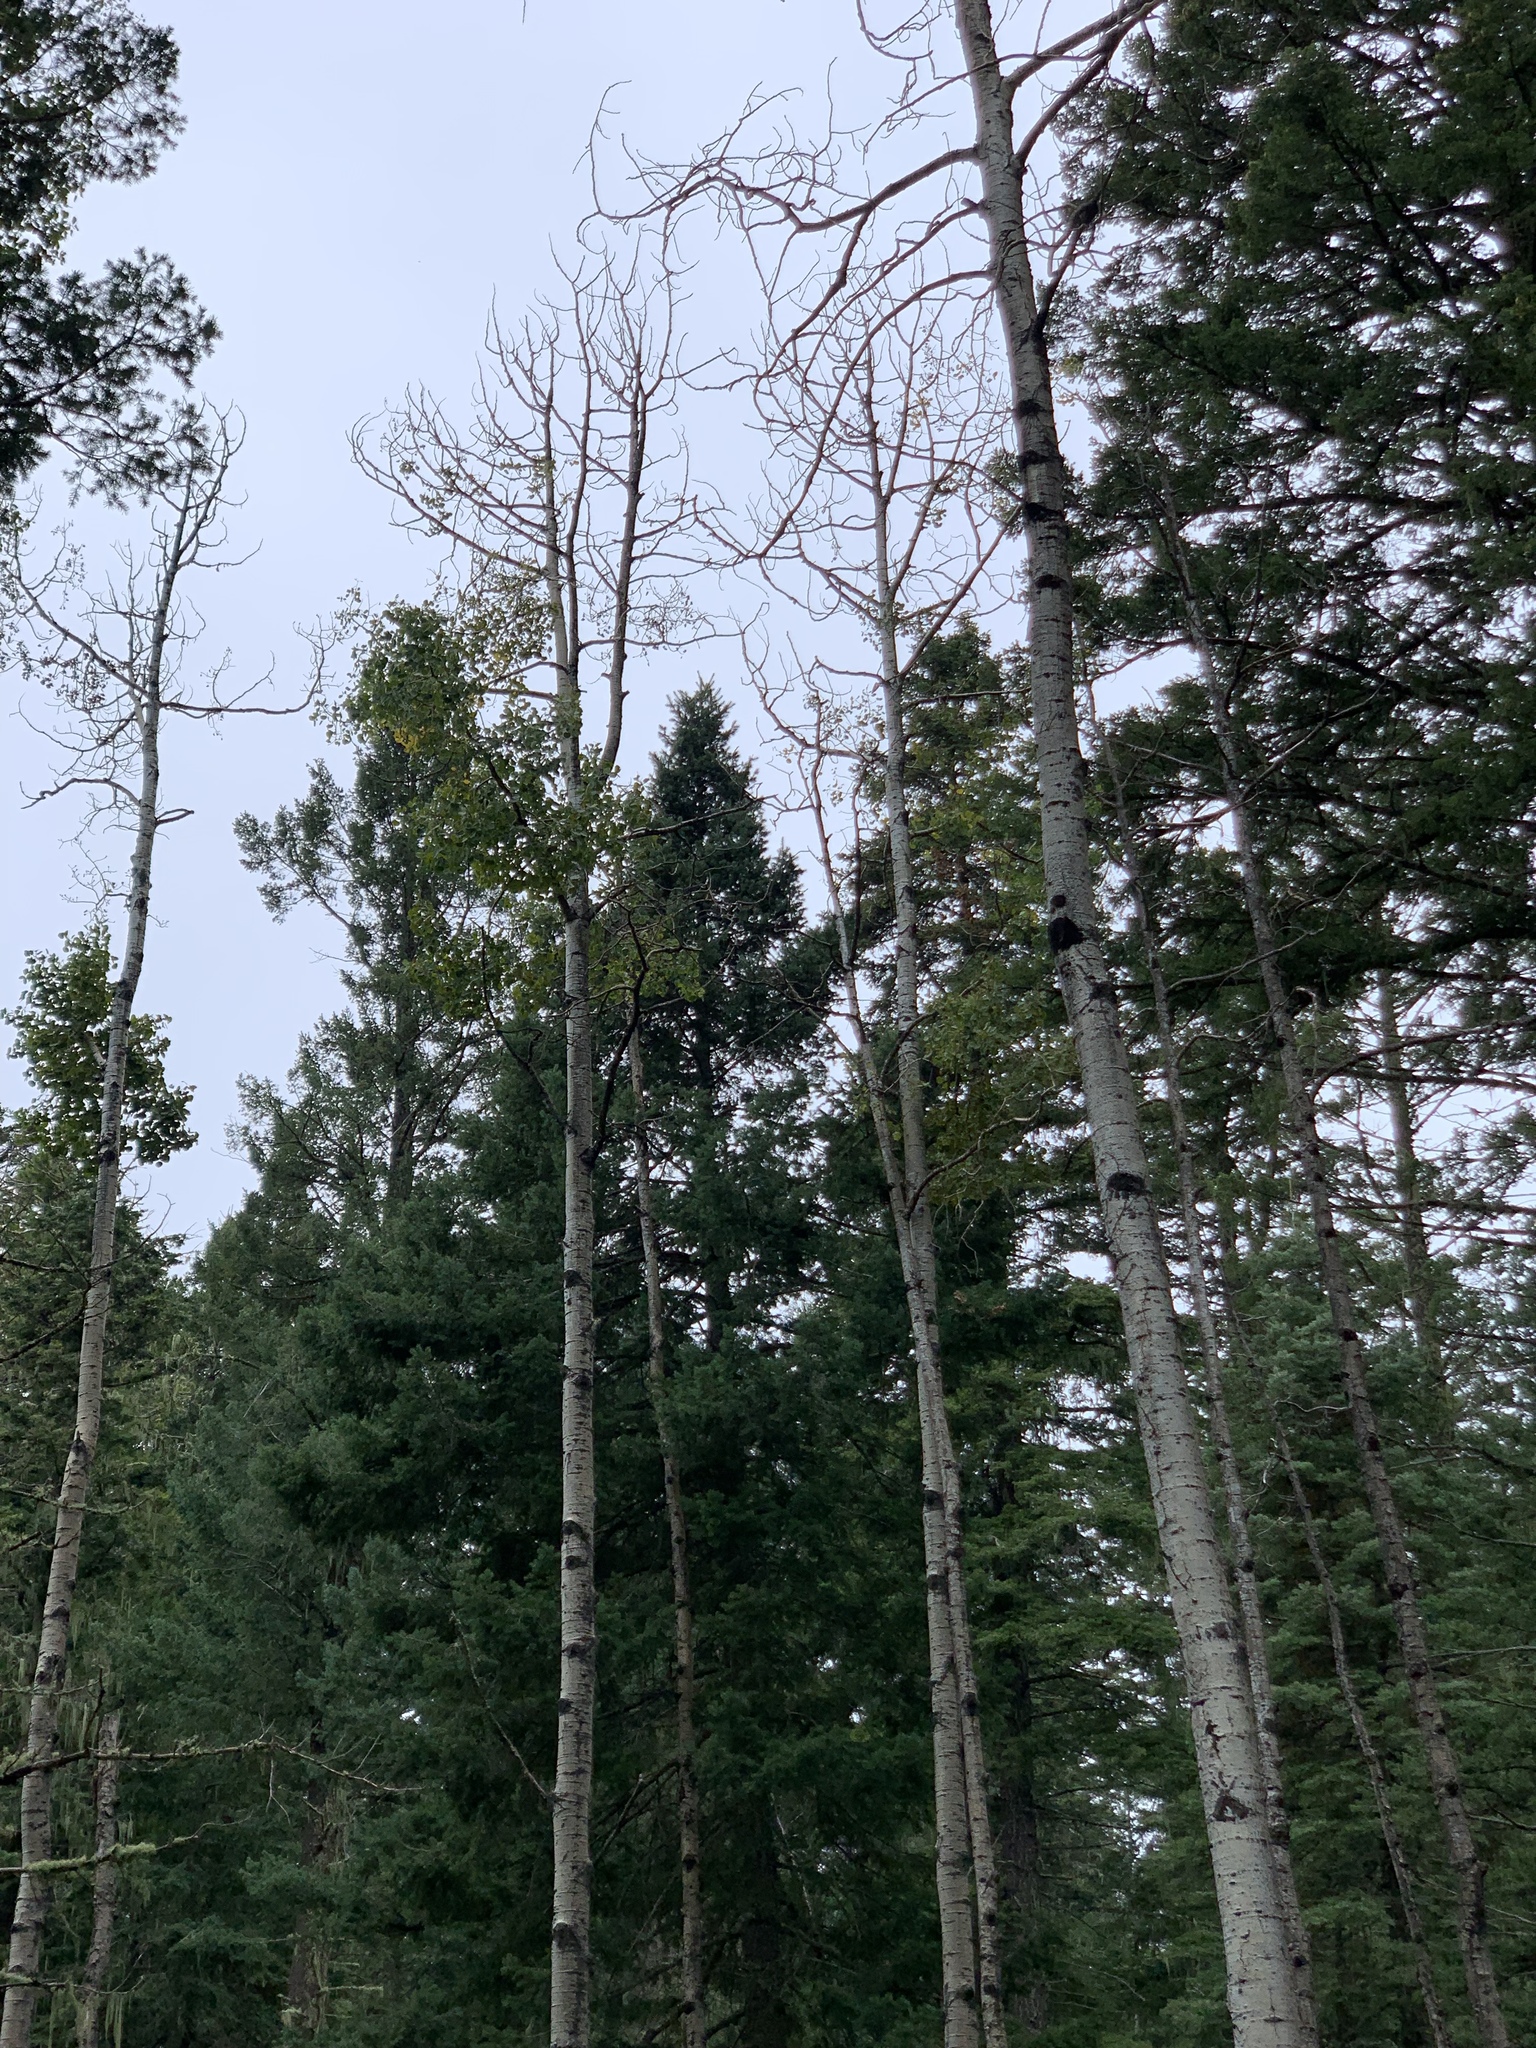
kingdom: Plantae
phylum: Tracheophyta
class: Magnoliopsida
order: Malpighiales
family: Salicaceae
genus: Populus
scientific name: Populus tremuloides
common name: Quaking aspen
